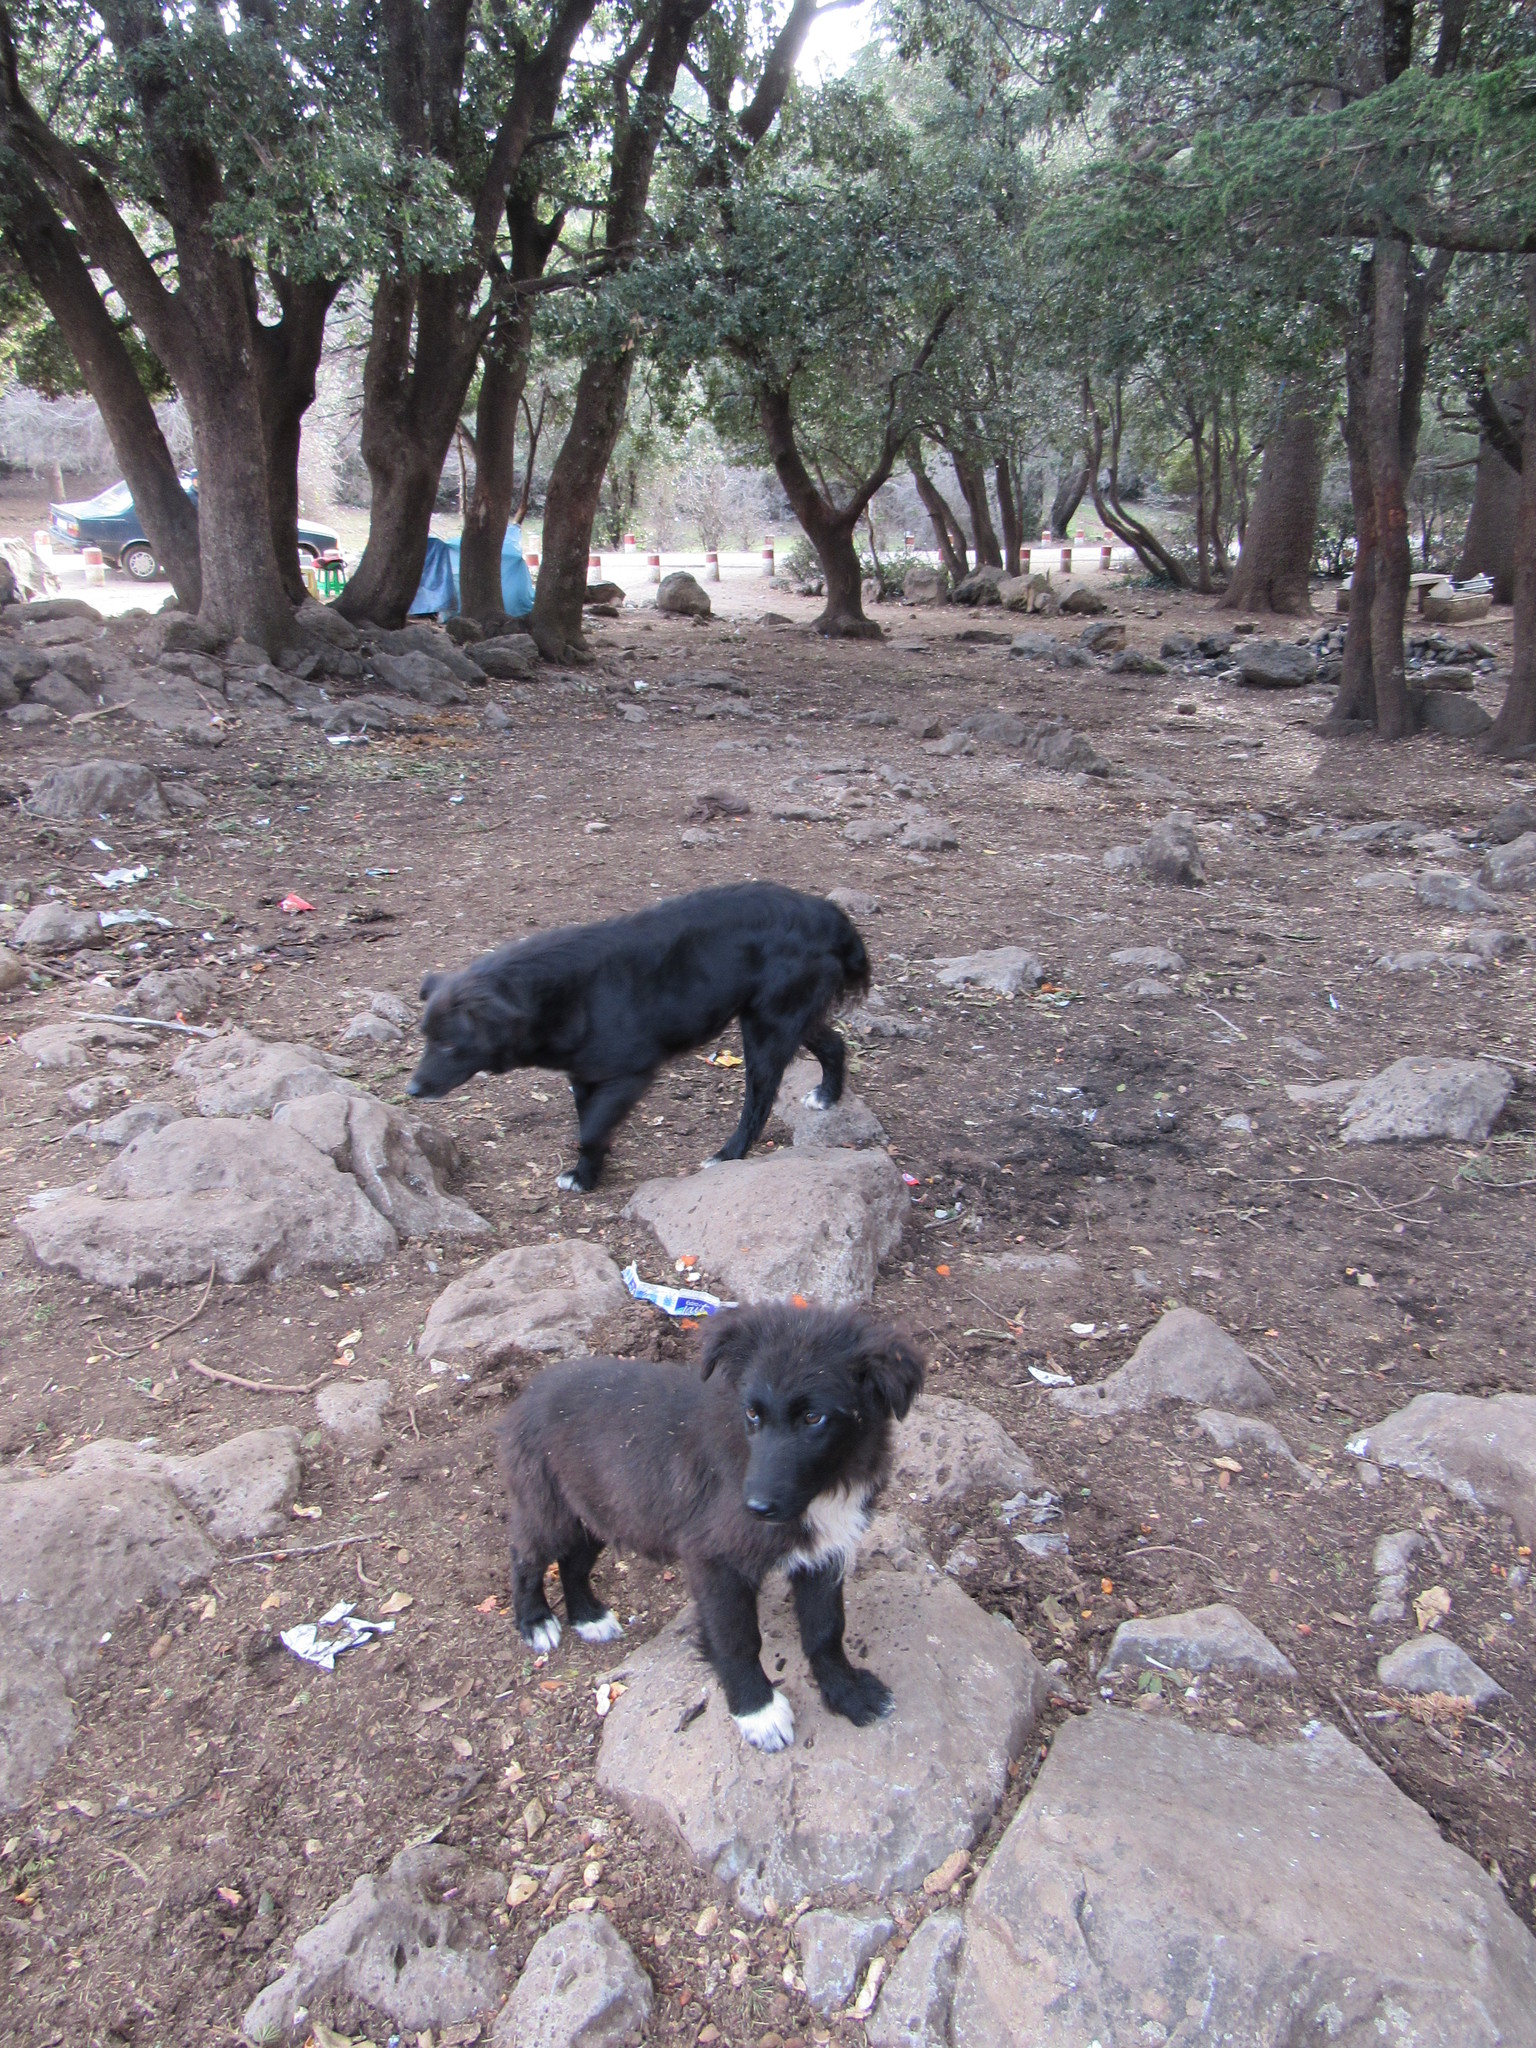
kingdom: Animalia
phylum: Chordata
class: Mammalia
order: Carnivora
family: Canidae
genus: Canis
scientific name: Canis lupus
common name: Gray wolf
